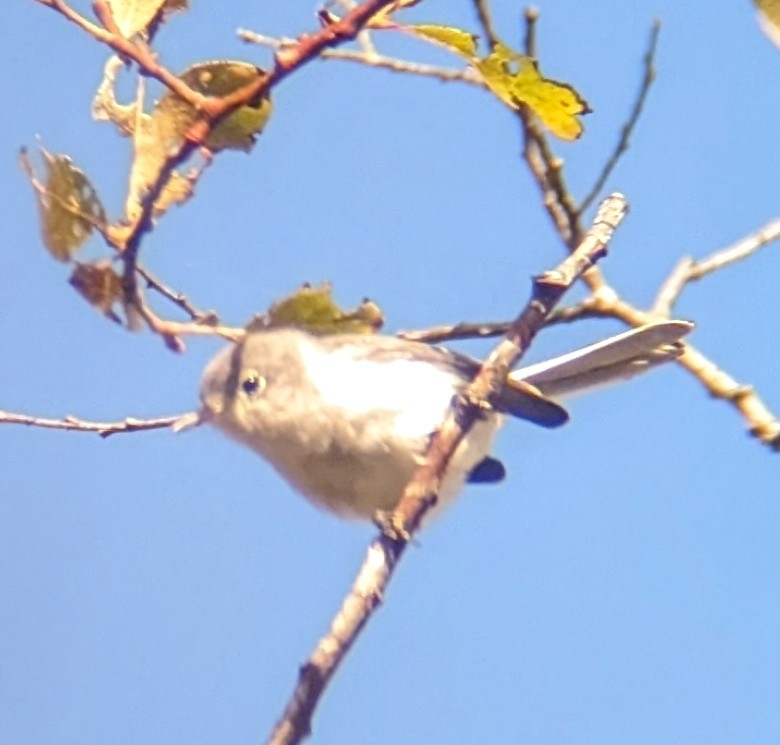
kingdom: Animalia
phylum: Chordata
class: Aves
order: Passeriformes
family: Polioptilidae
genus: Polioptila
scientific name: Polioptila caerulea
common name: Blue-gray gnatcatcher
